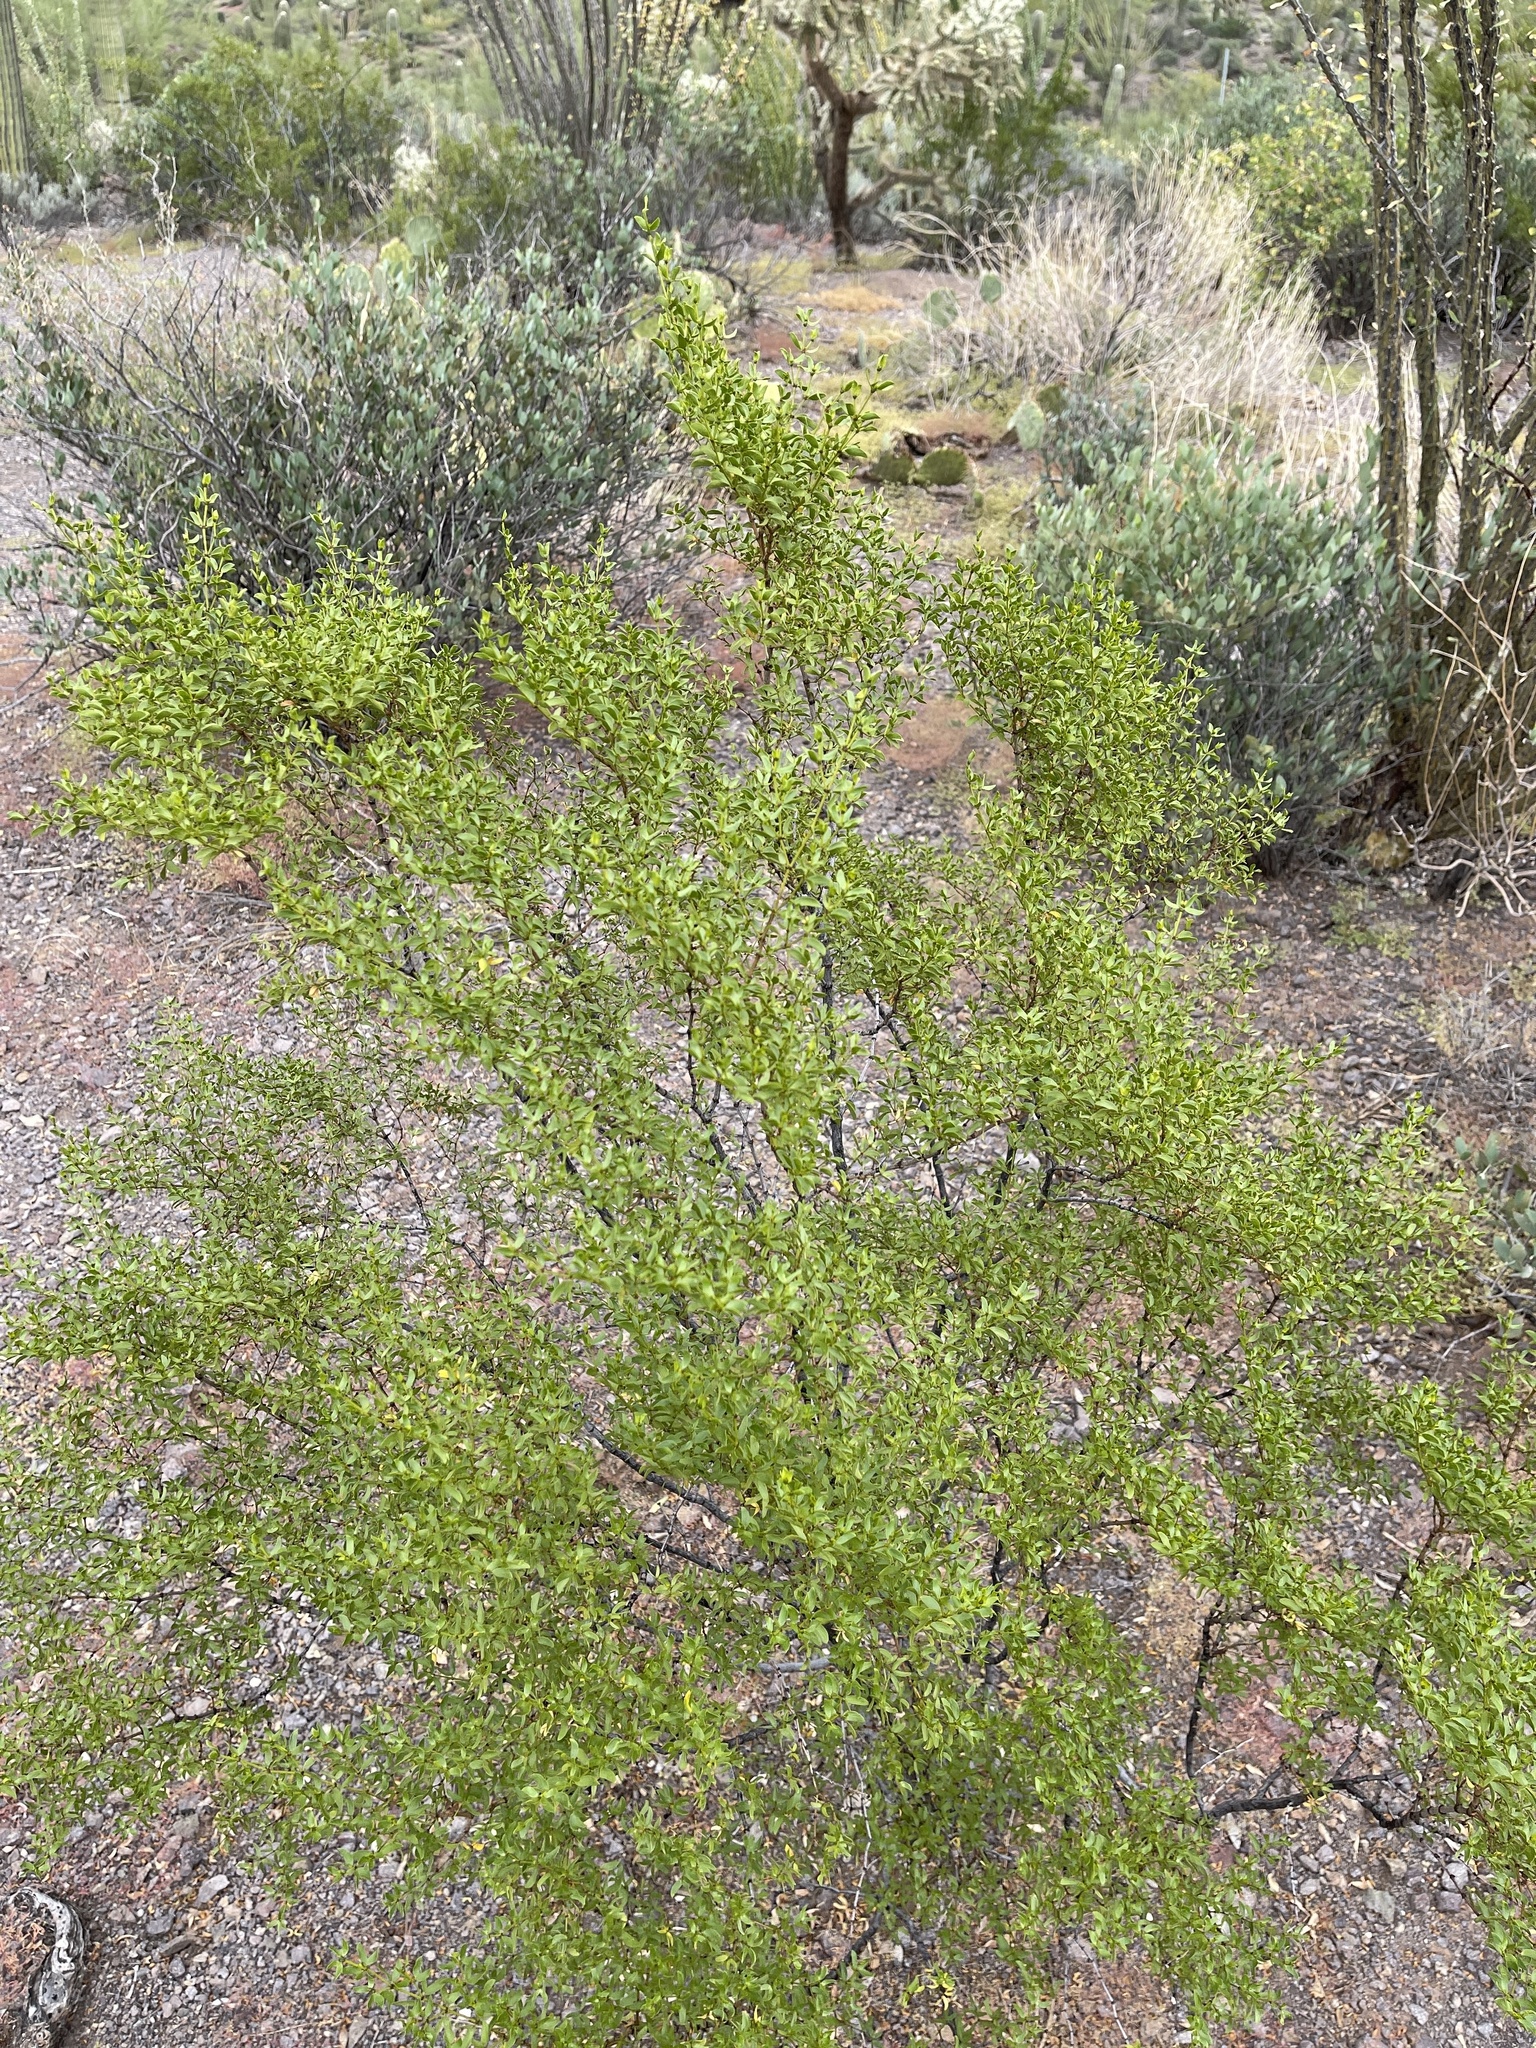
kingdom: Plantae
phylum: Tracheophyta
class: Magnoliopsida
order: Zygophyllales
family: Zygophyllaceae
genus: Larrea
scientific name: Larrea tridentata
